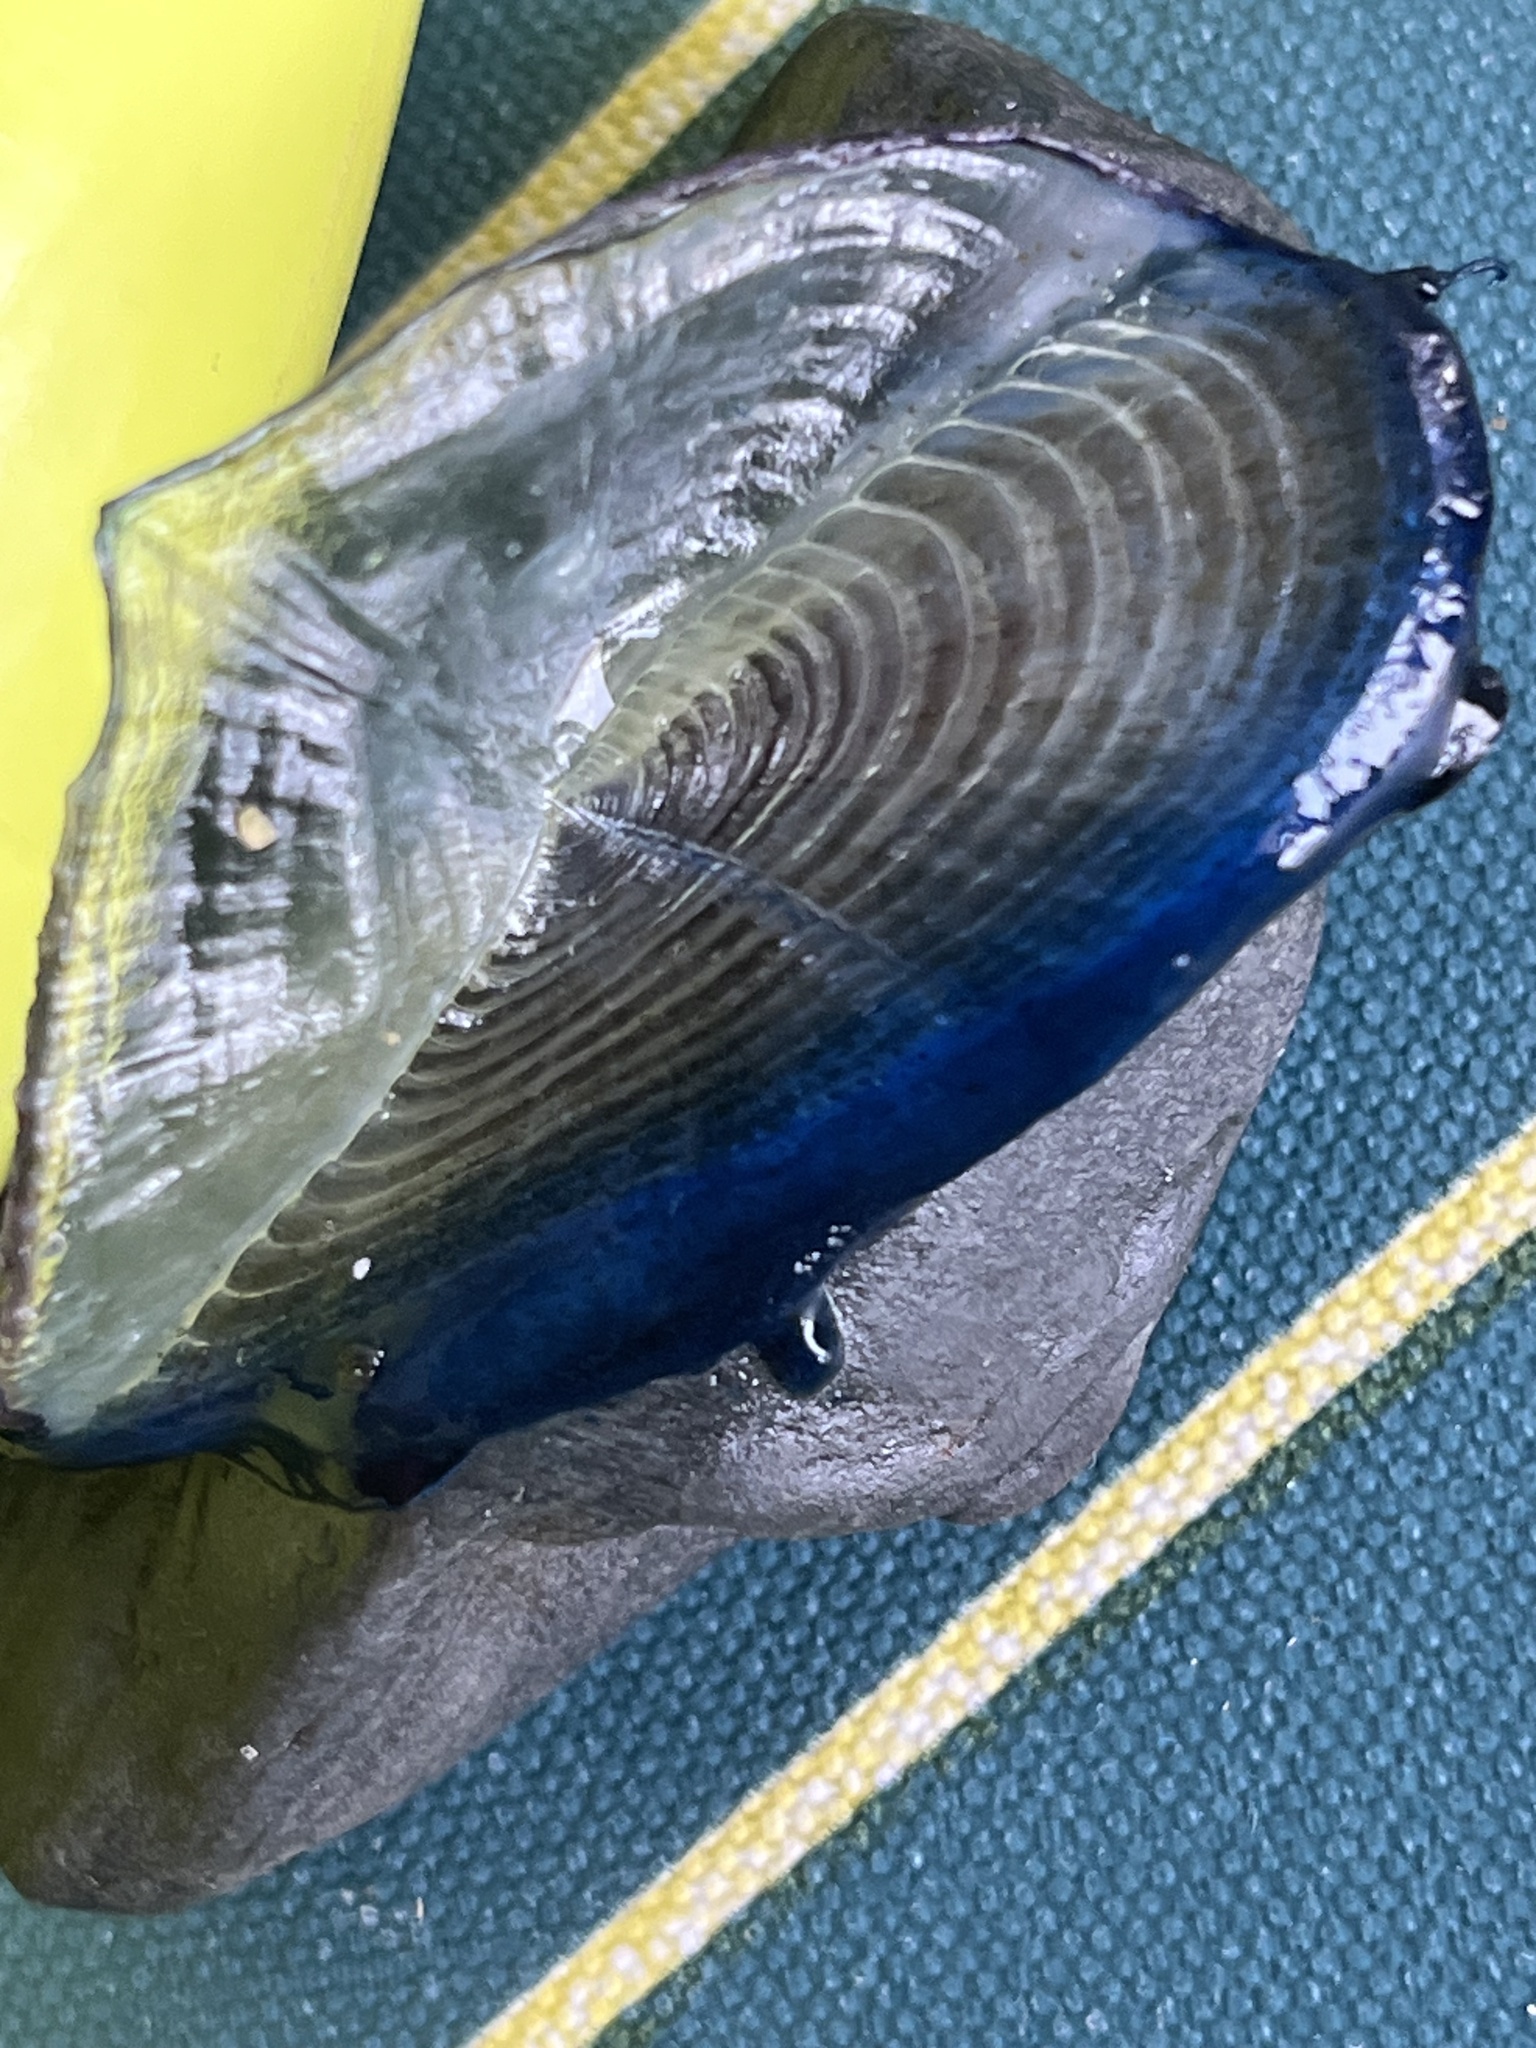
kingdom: Animalia
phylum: Cnidaria
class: Hydrozoa
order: Anthoathecata
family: Porpitidae
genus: Velella
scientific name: Velella velella
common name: By-the-wind-sailor
